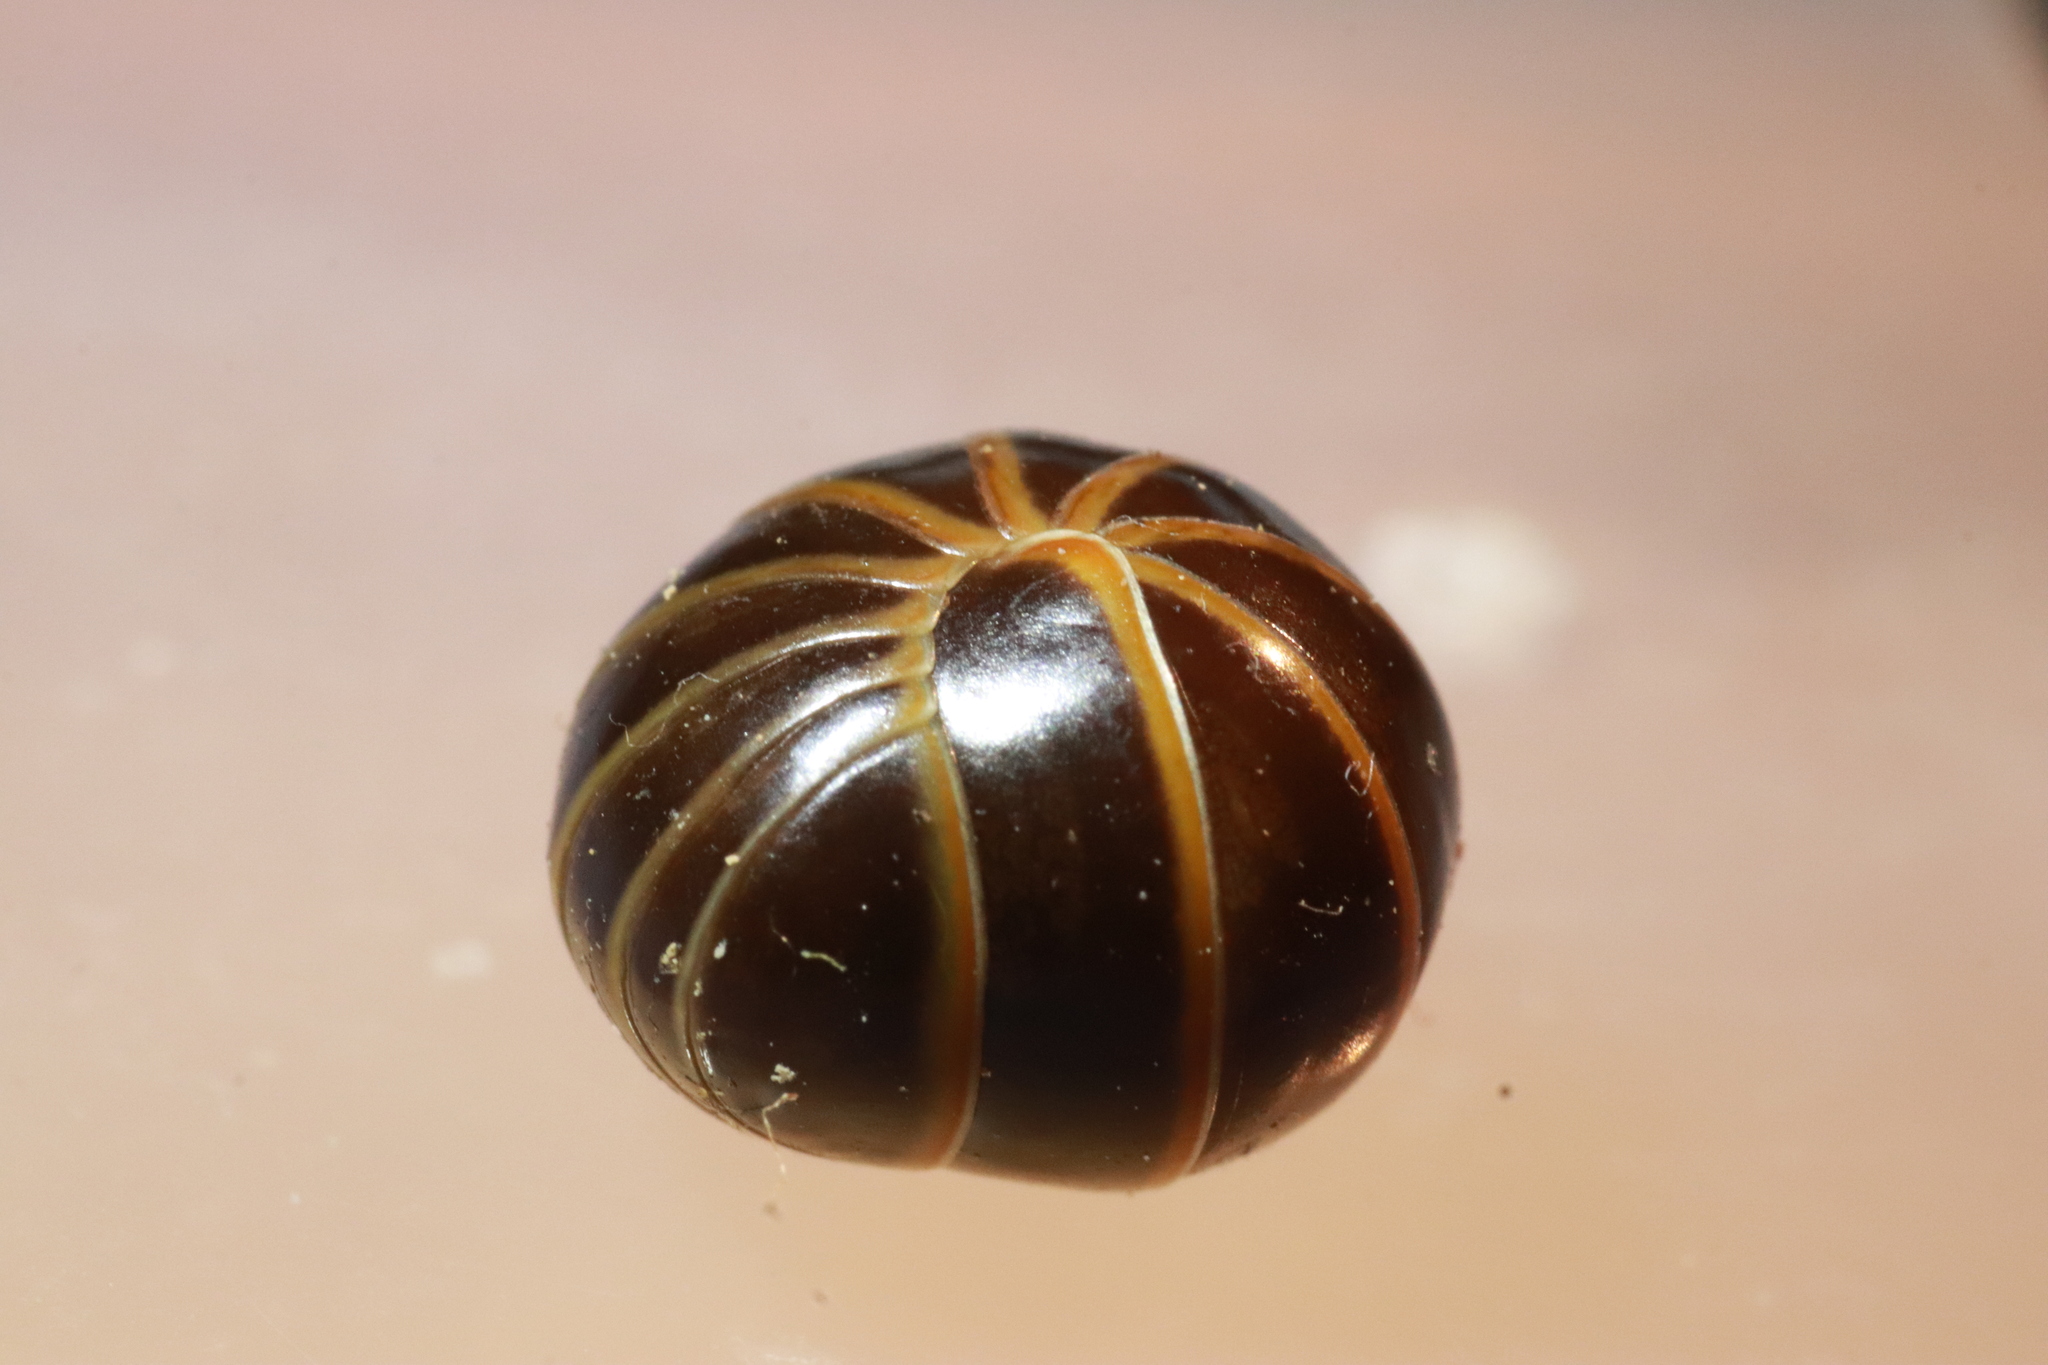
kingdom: Animalia
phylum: Arthropoda
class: Diplopoda
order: Glomerida
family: Glomeridae
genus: Glomeris
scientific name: Glomeris marginata
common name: Bordered pill millipede
